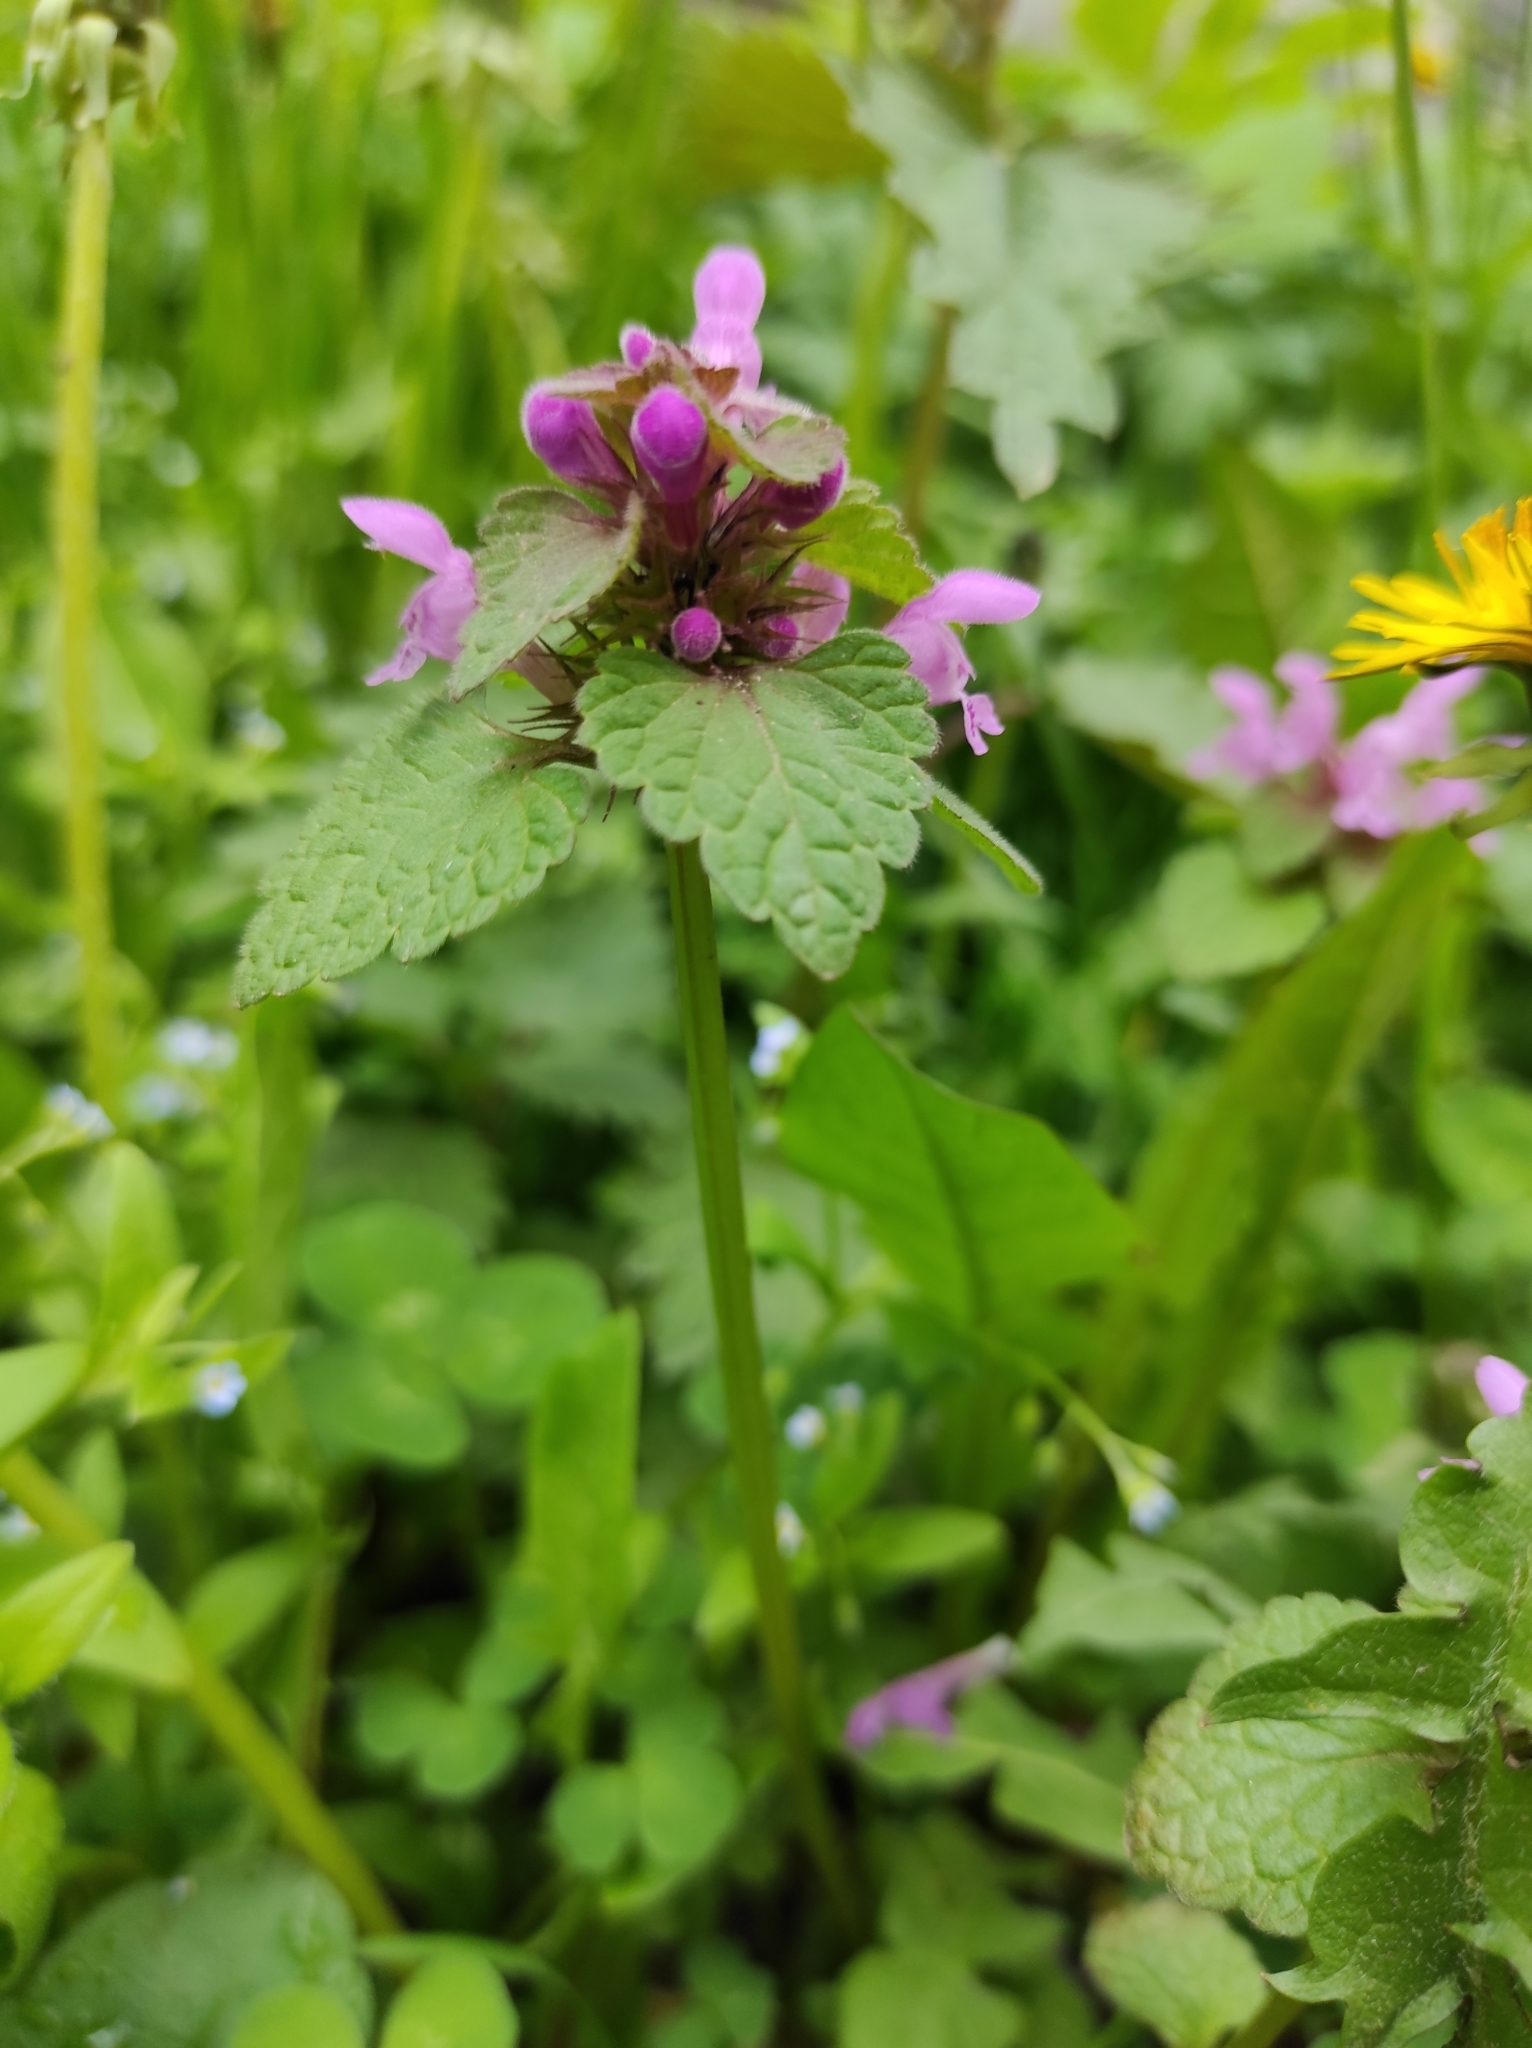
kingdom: Plantae
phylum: Tracheophyta
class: Magnoliopsida
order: Lamiales
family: Lamiaceae
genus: Lamium
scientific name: Lamium purpureum
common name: Red dead-nettle
